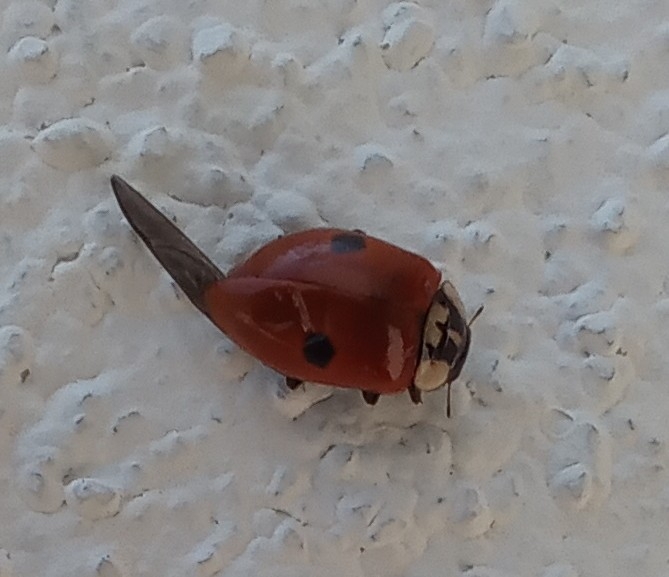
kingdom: Animalia
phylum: Arthropoda
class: Insecta
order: Coleoptera
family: Coccinellidae
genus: Adalia
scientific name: Adalia bipunctata
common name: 2-spot ladybird
